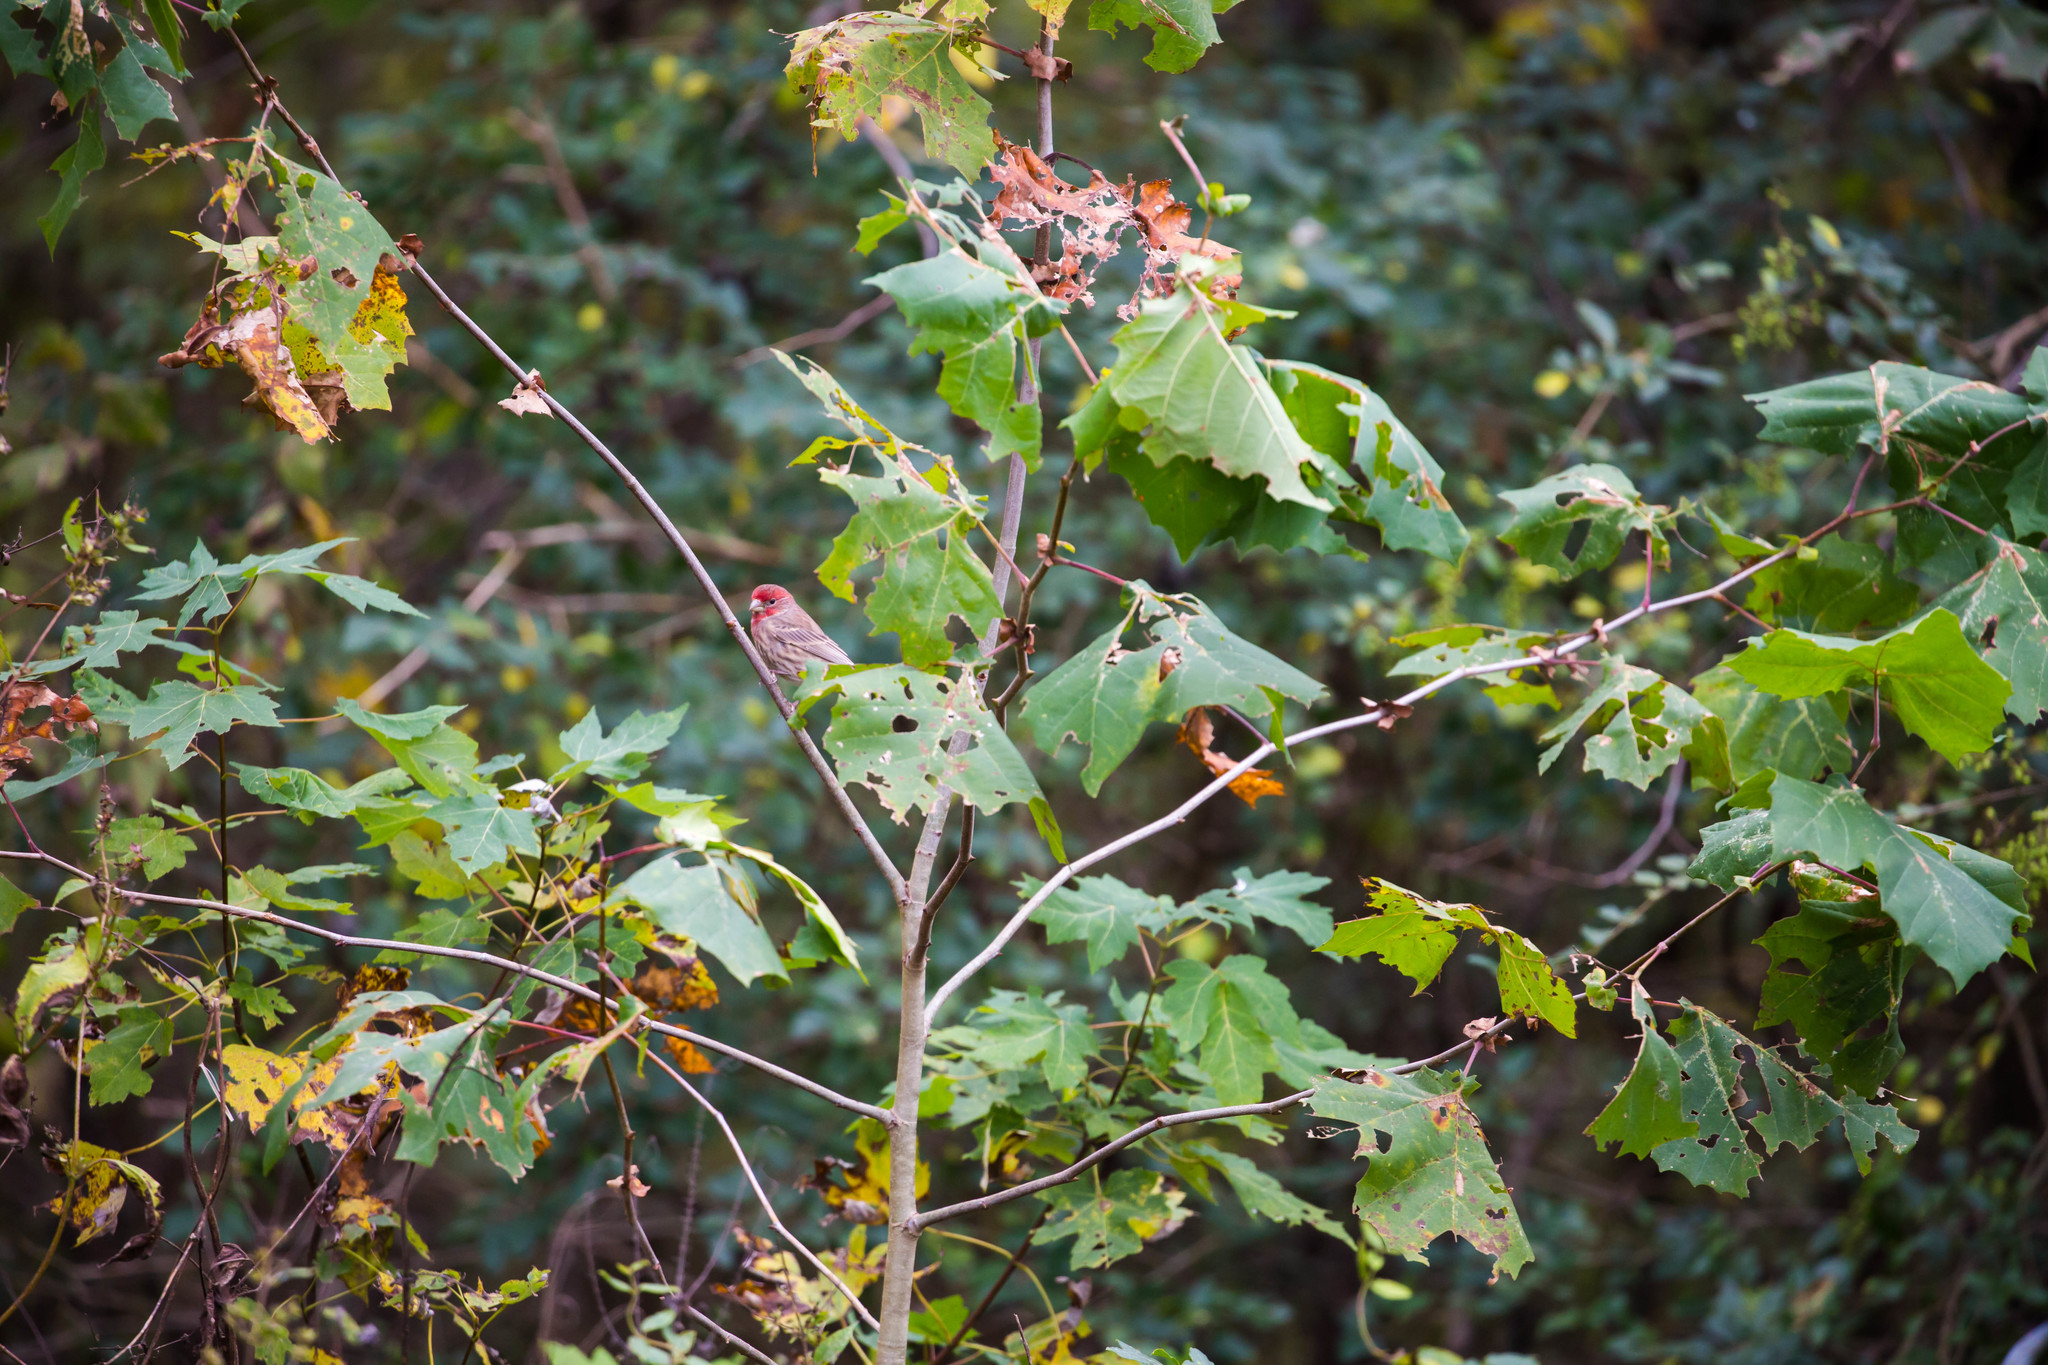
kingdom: Animalia
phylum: Chordata
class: Aves
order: Passeriformes
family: Fringillidae
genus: Haemorhous
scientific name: Haemorhous mexicanus
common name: House finch
